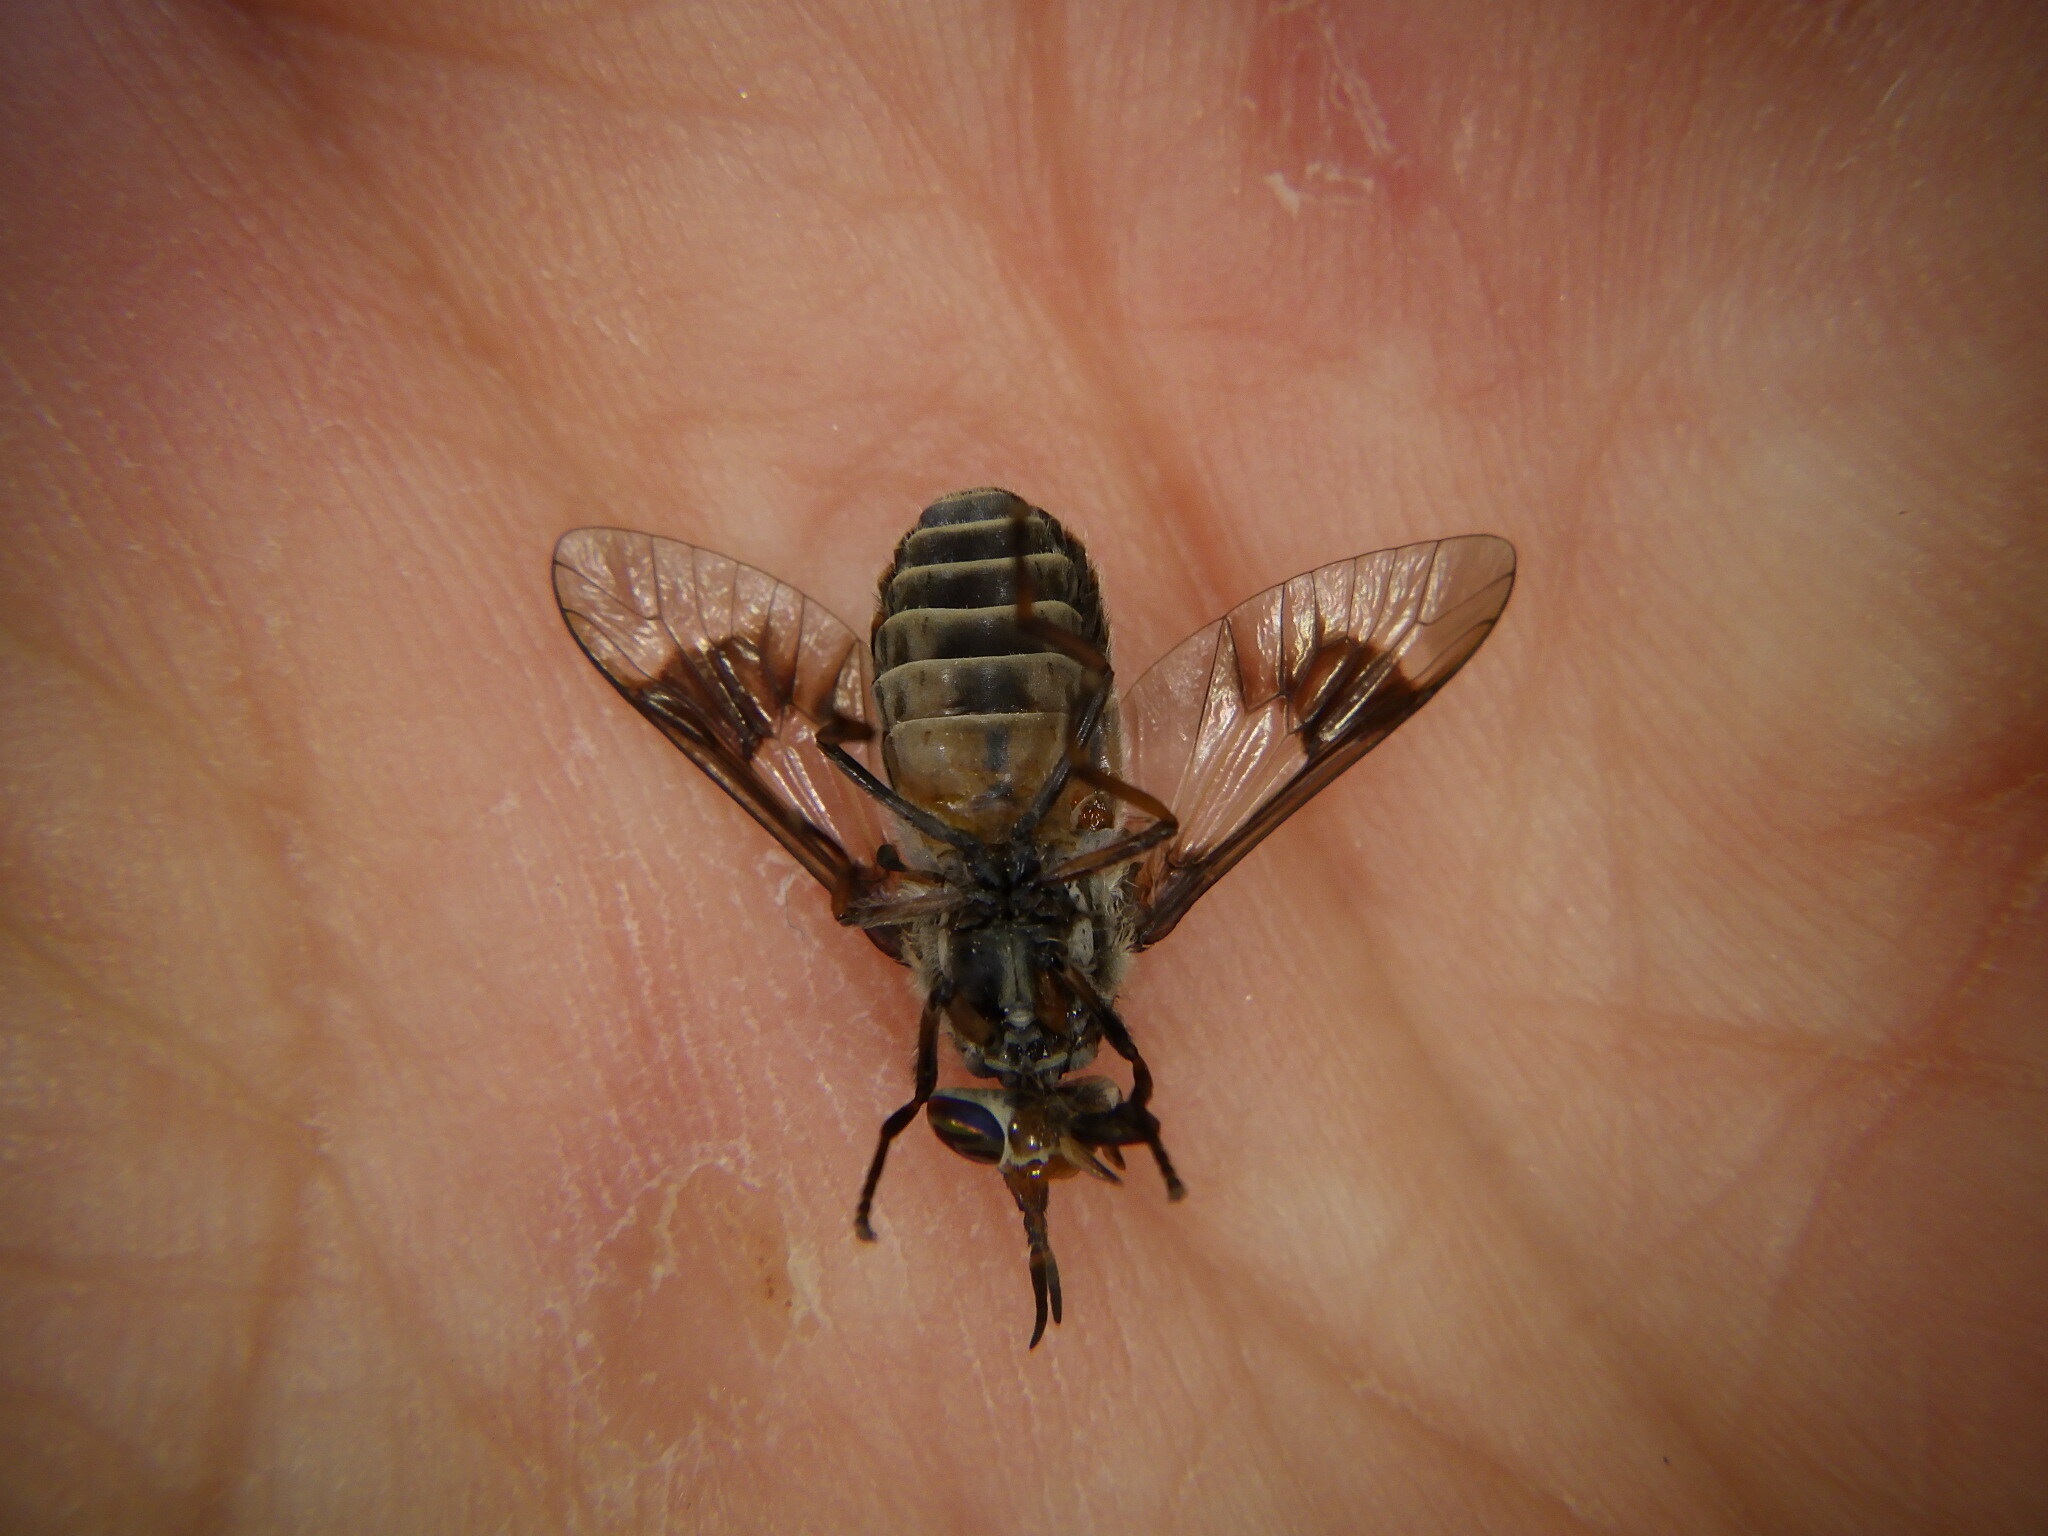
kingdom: Animalia
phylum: Arthropoda
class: Insecta
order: Diptera
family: Tabanidae
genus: Chrysops
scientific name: Chrysops aestuans
